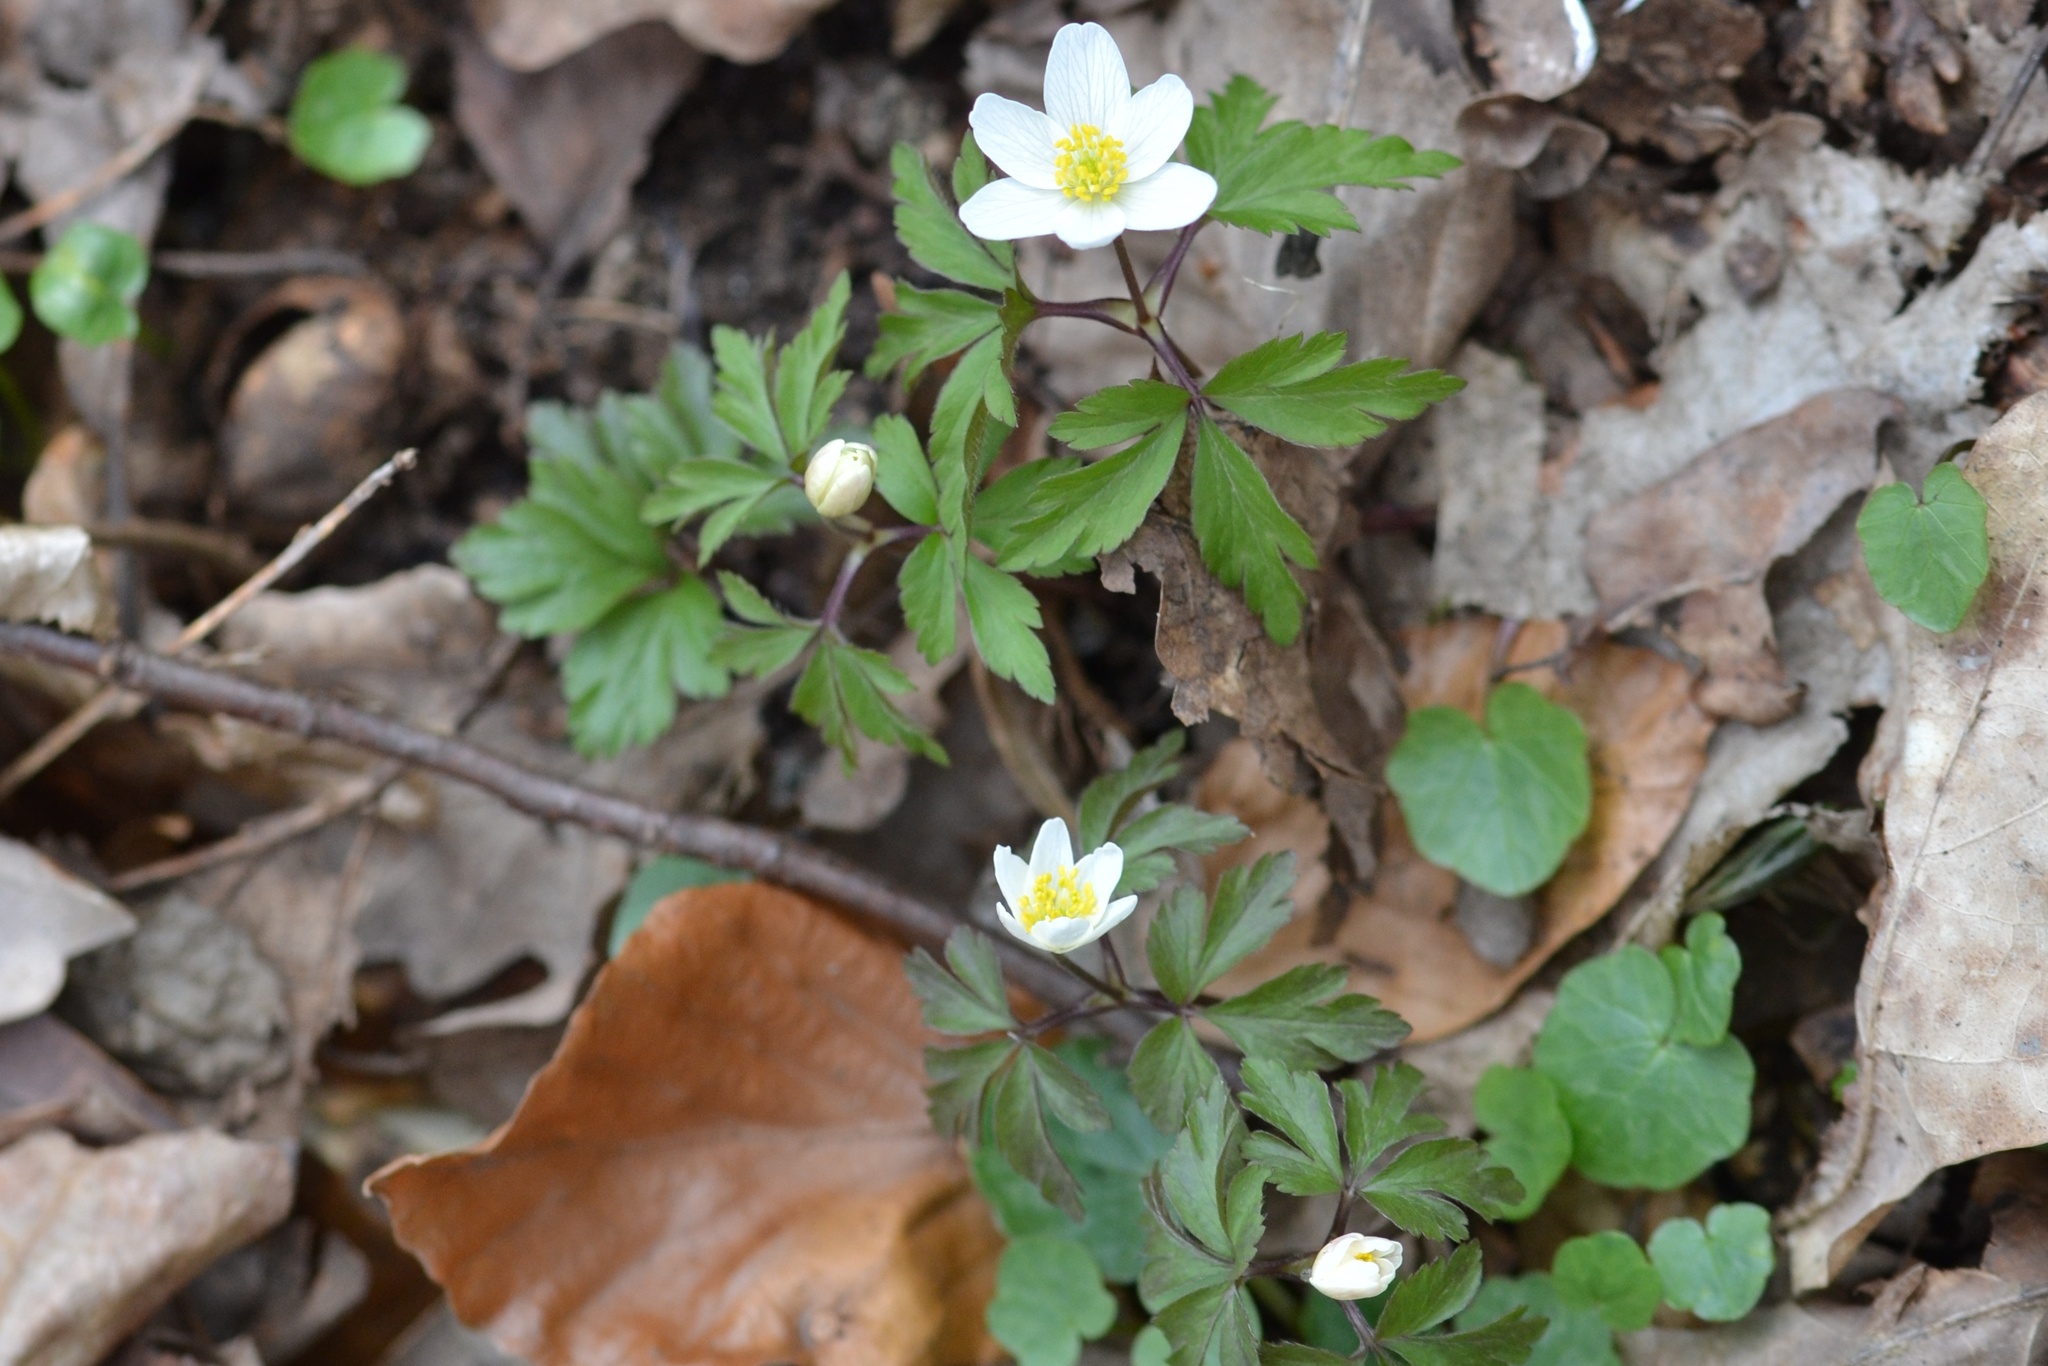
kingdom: Plantae
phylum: Tracheophyta
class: Magnoliopsida
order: Ranunculales
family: Ranunculaceae
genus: Anemone
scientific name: Anemone nemorosa
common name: Wood anemone
